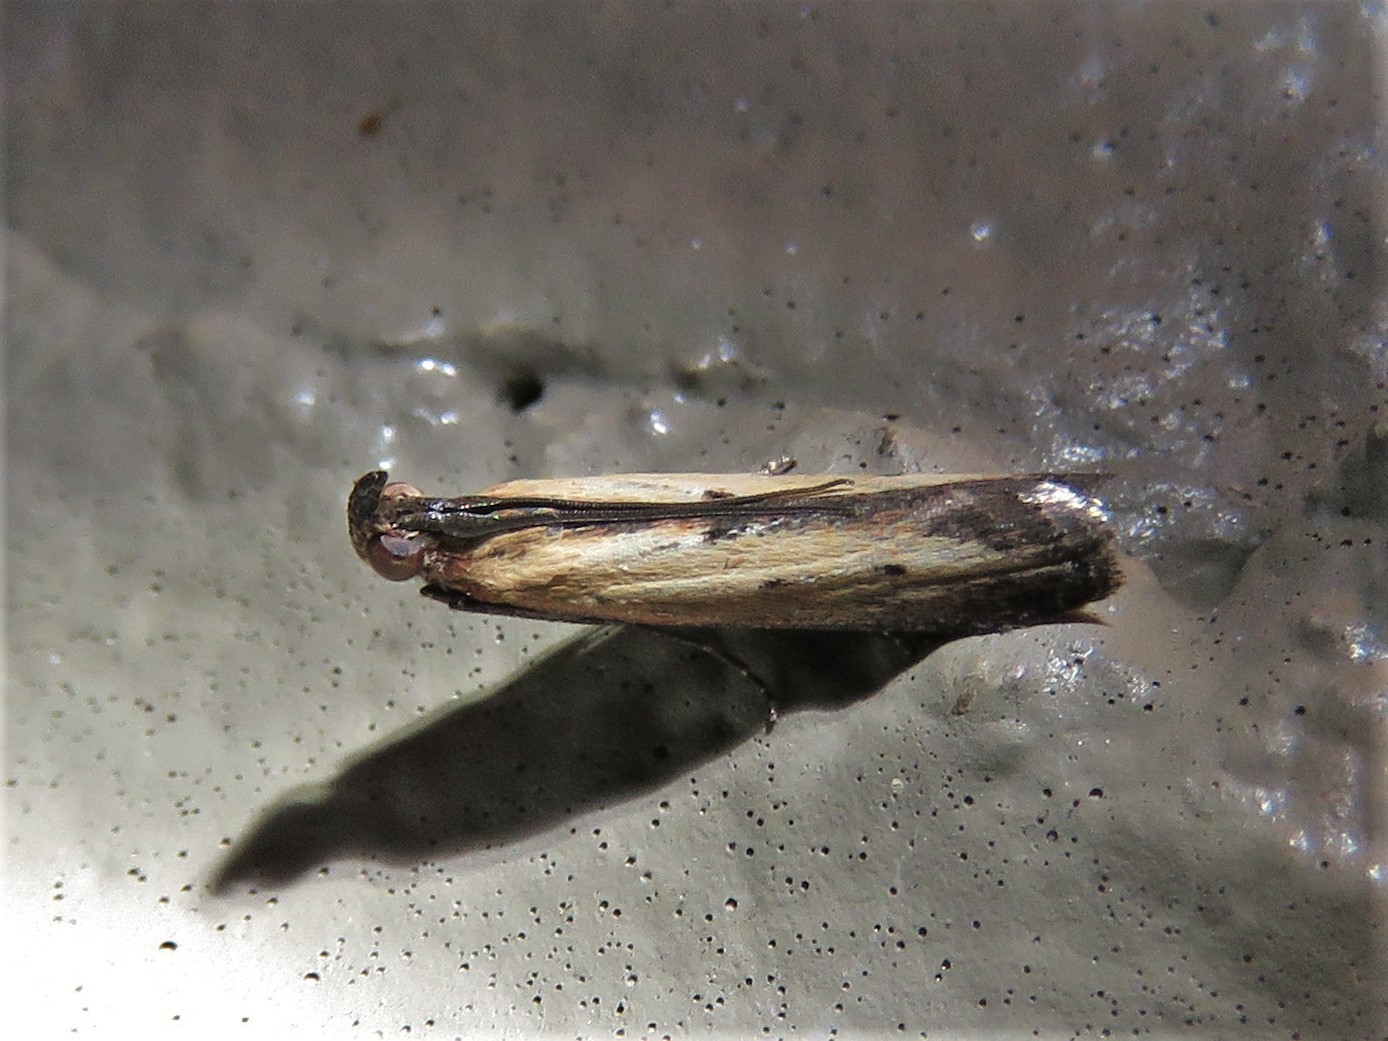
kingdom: Animalia
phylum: Arthropoda
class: Insecta
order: Lepidoptera
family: Pyralidae
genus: Elasmopalpus
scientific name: Elasmopalpus lignosella
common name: Lesser cornstalk borer
